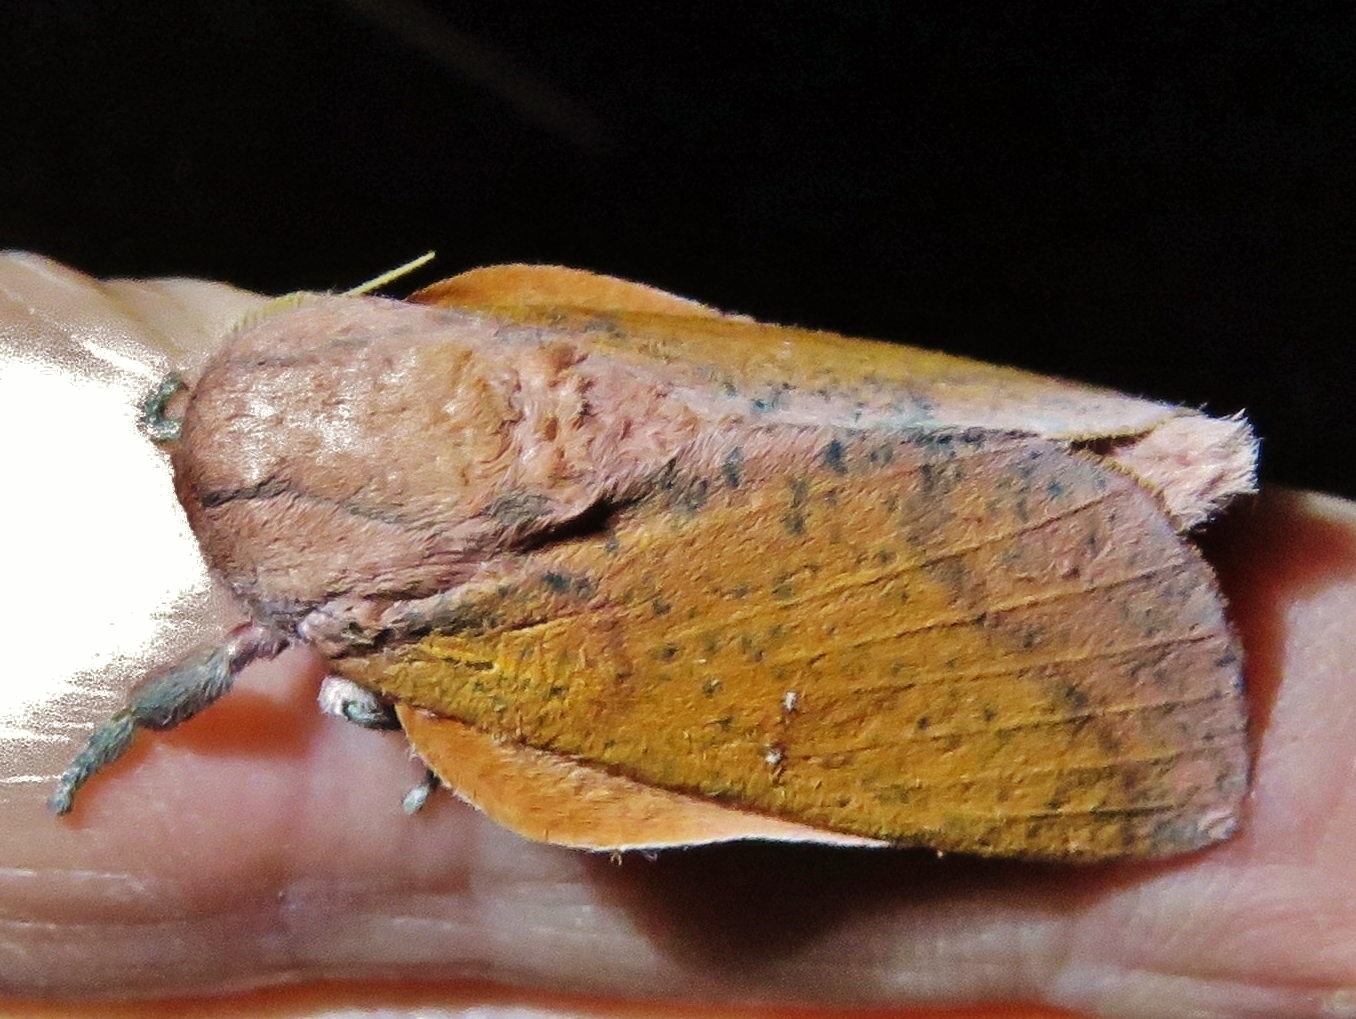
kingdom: Animalia
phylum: Arthropoda
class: Insecta
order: Lepidoptera
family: Saturniidae
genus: Syssphinx
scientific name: Syssphinx bicolor
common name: Honey locust moth
